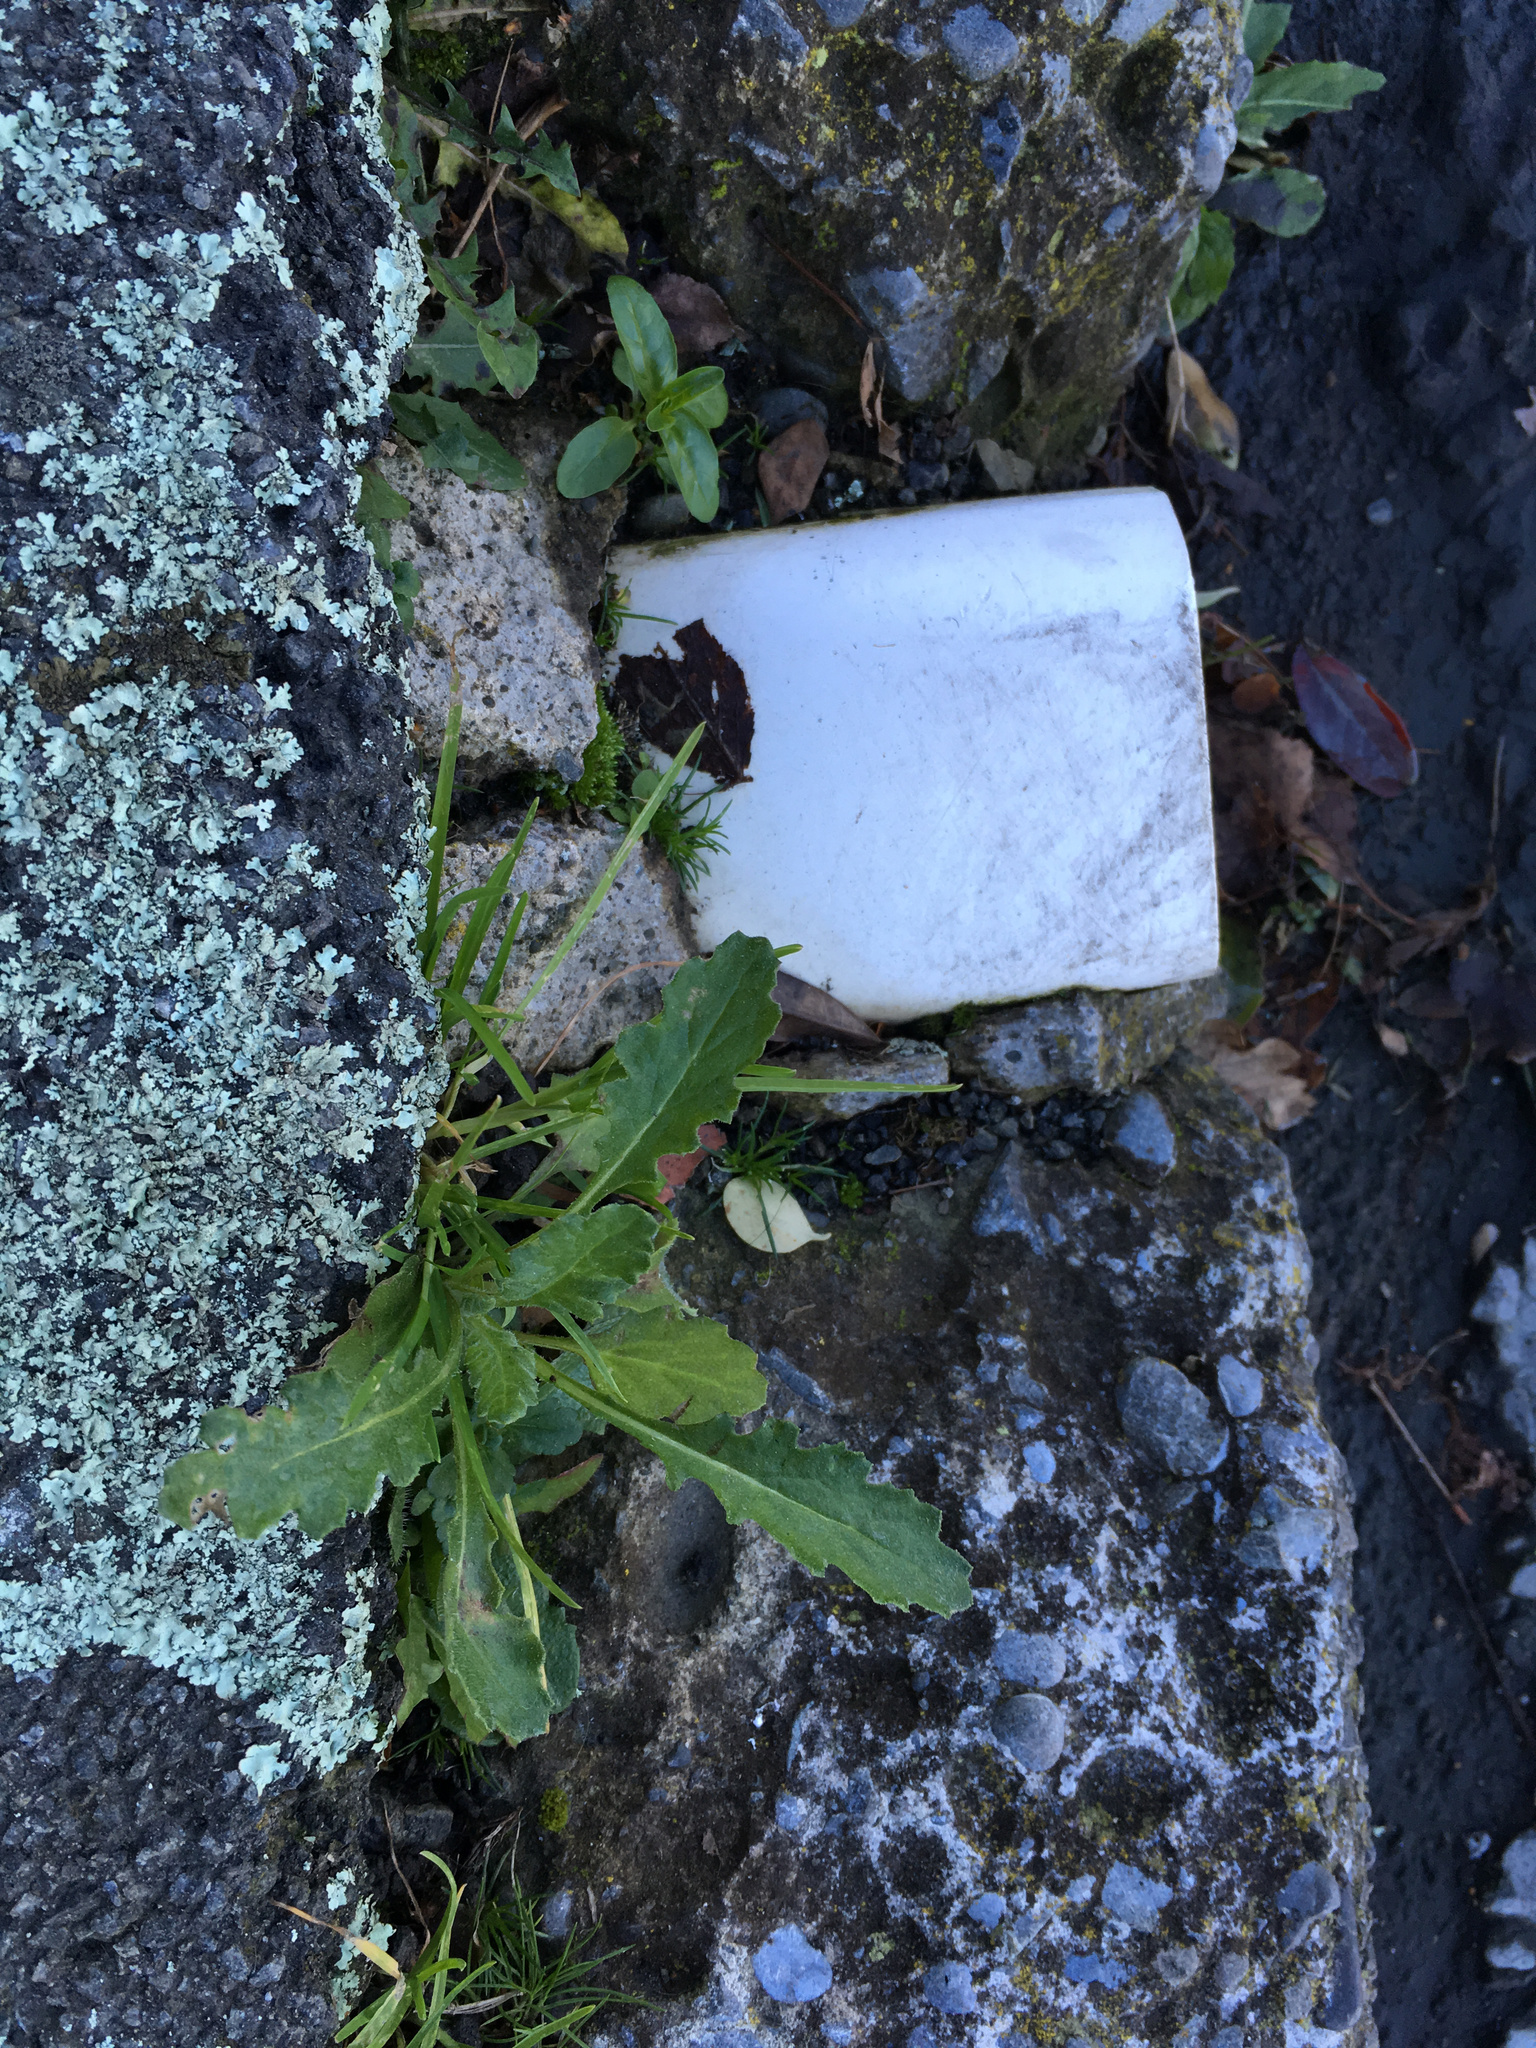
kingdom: Plantae
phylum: Tracheophyta
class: Magnoliopsida
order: Asterales
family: Asteraceae
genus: Senecio
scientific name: Senecio glomeratus
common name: Cutleaf burnweed
